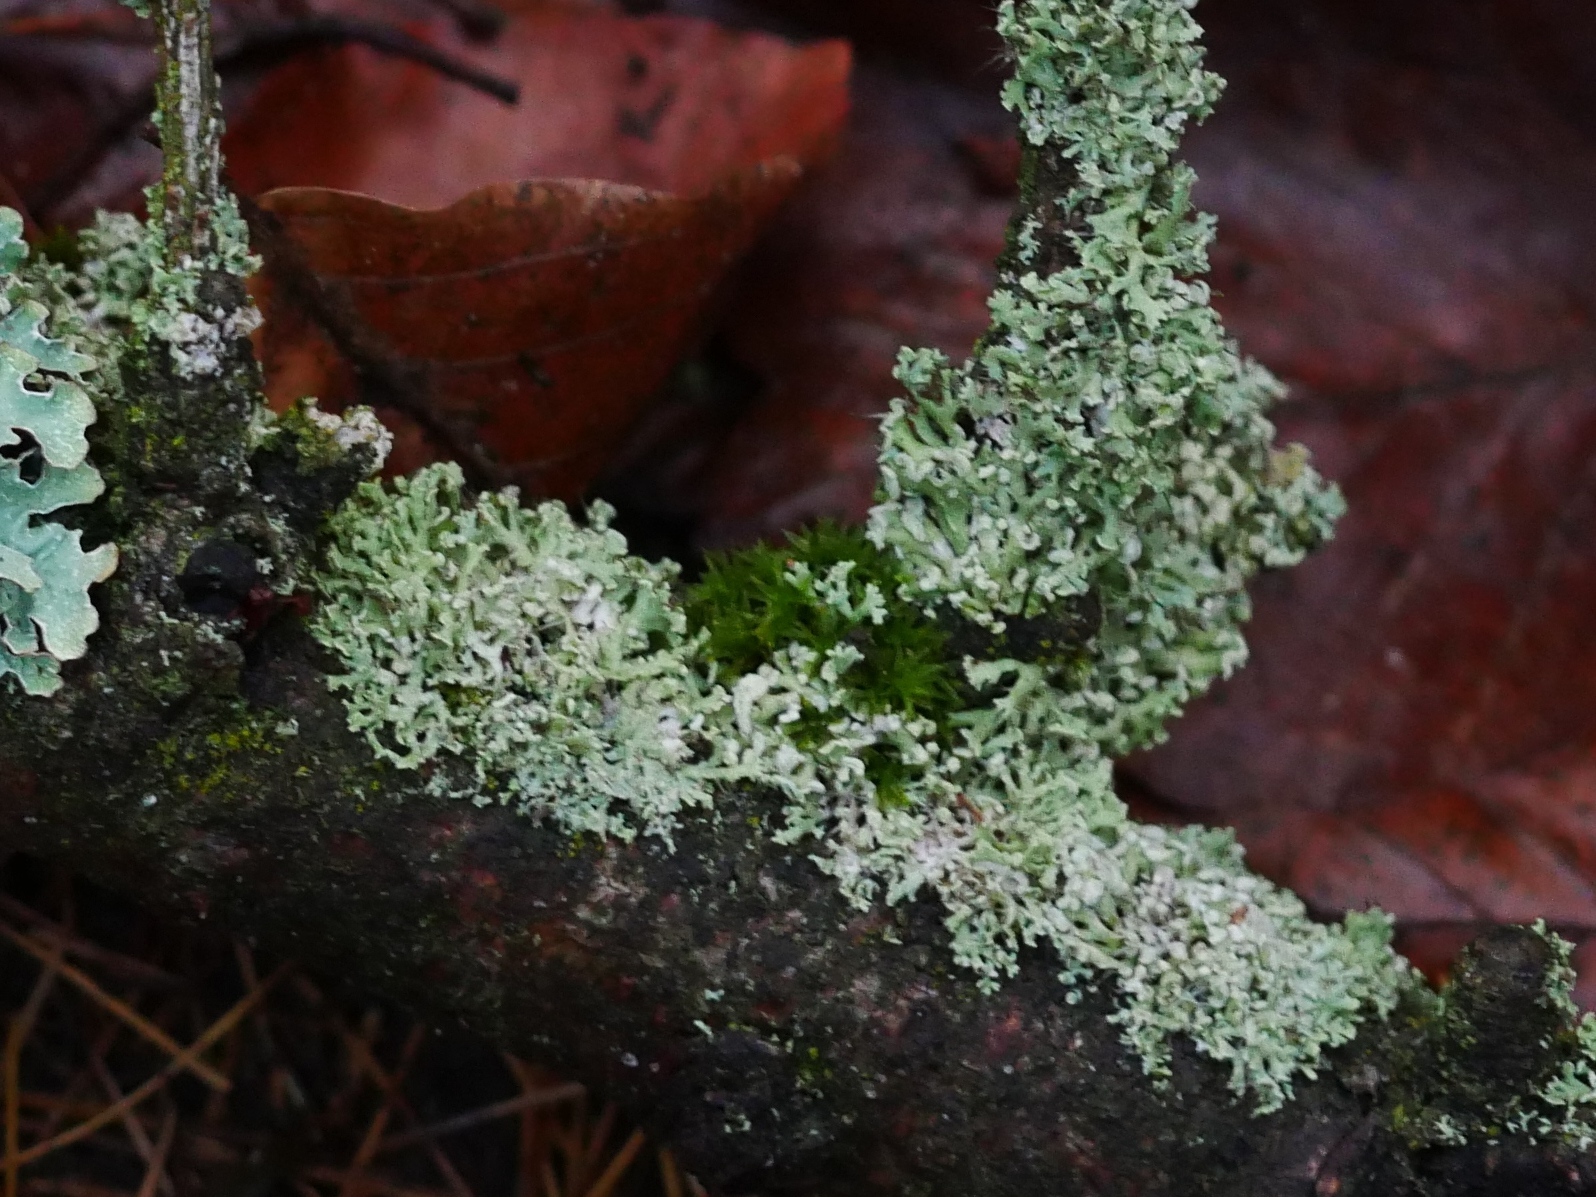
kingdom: Fungi
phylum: Ascomycota
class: Lecanoromycetes
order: Caliciales
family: Physciaceae
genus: Physcia
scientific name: Physcia tenella
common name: Fringed rosette lichen
